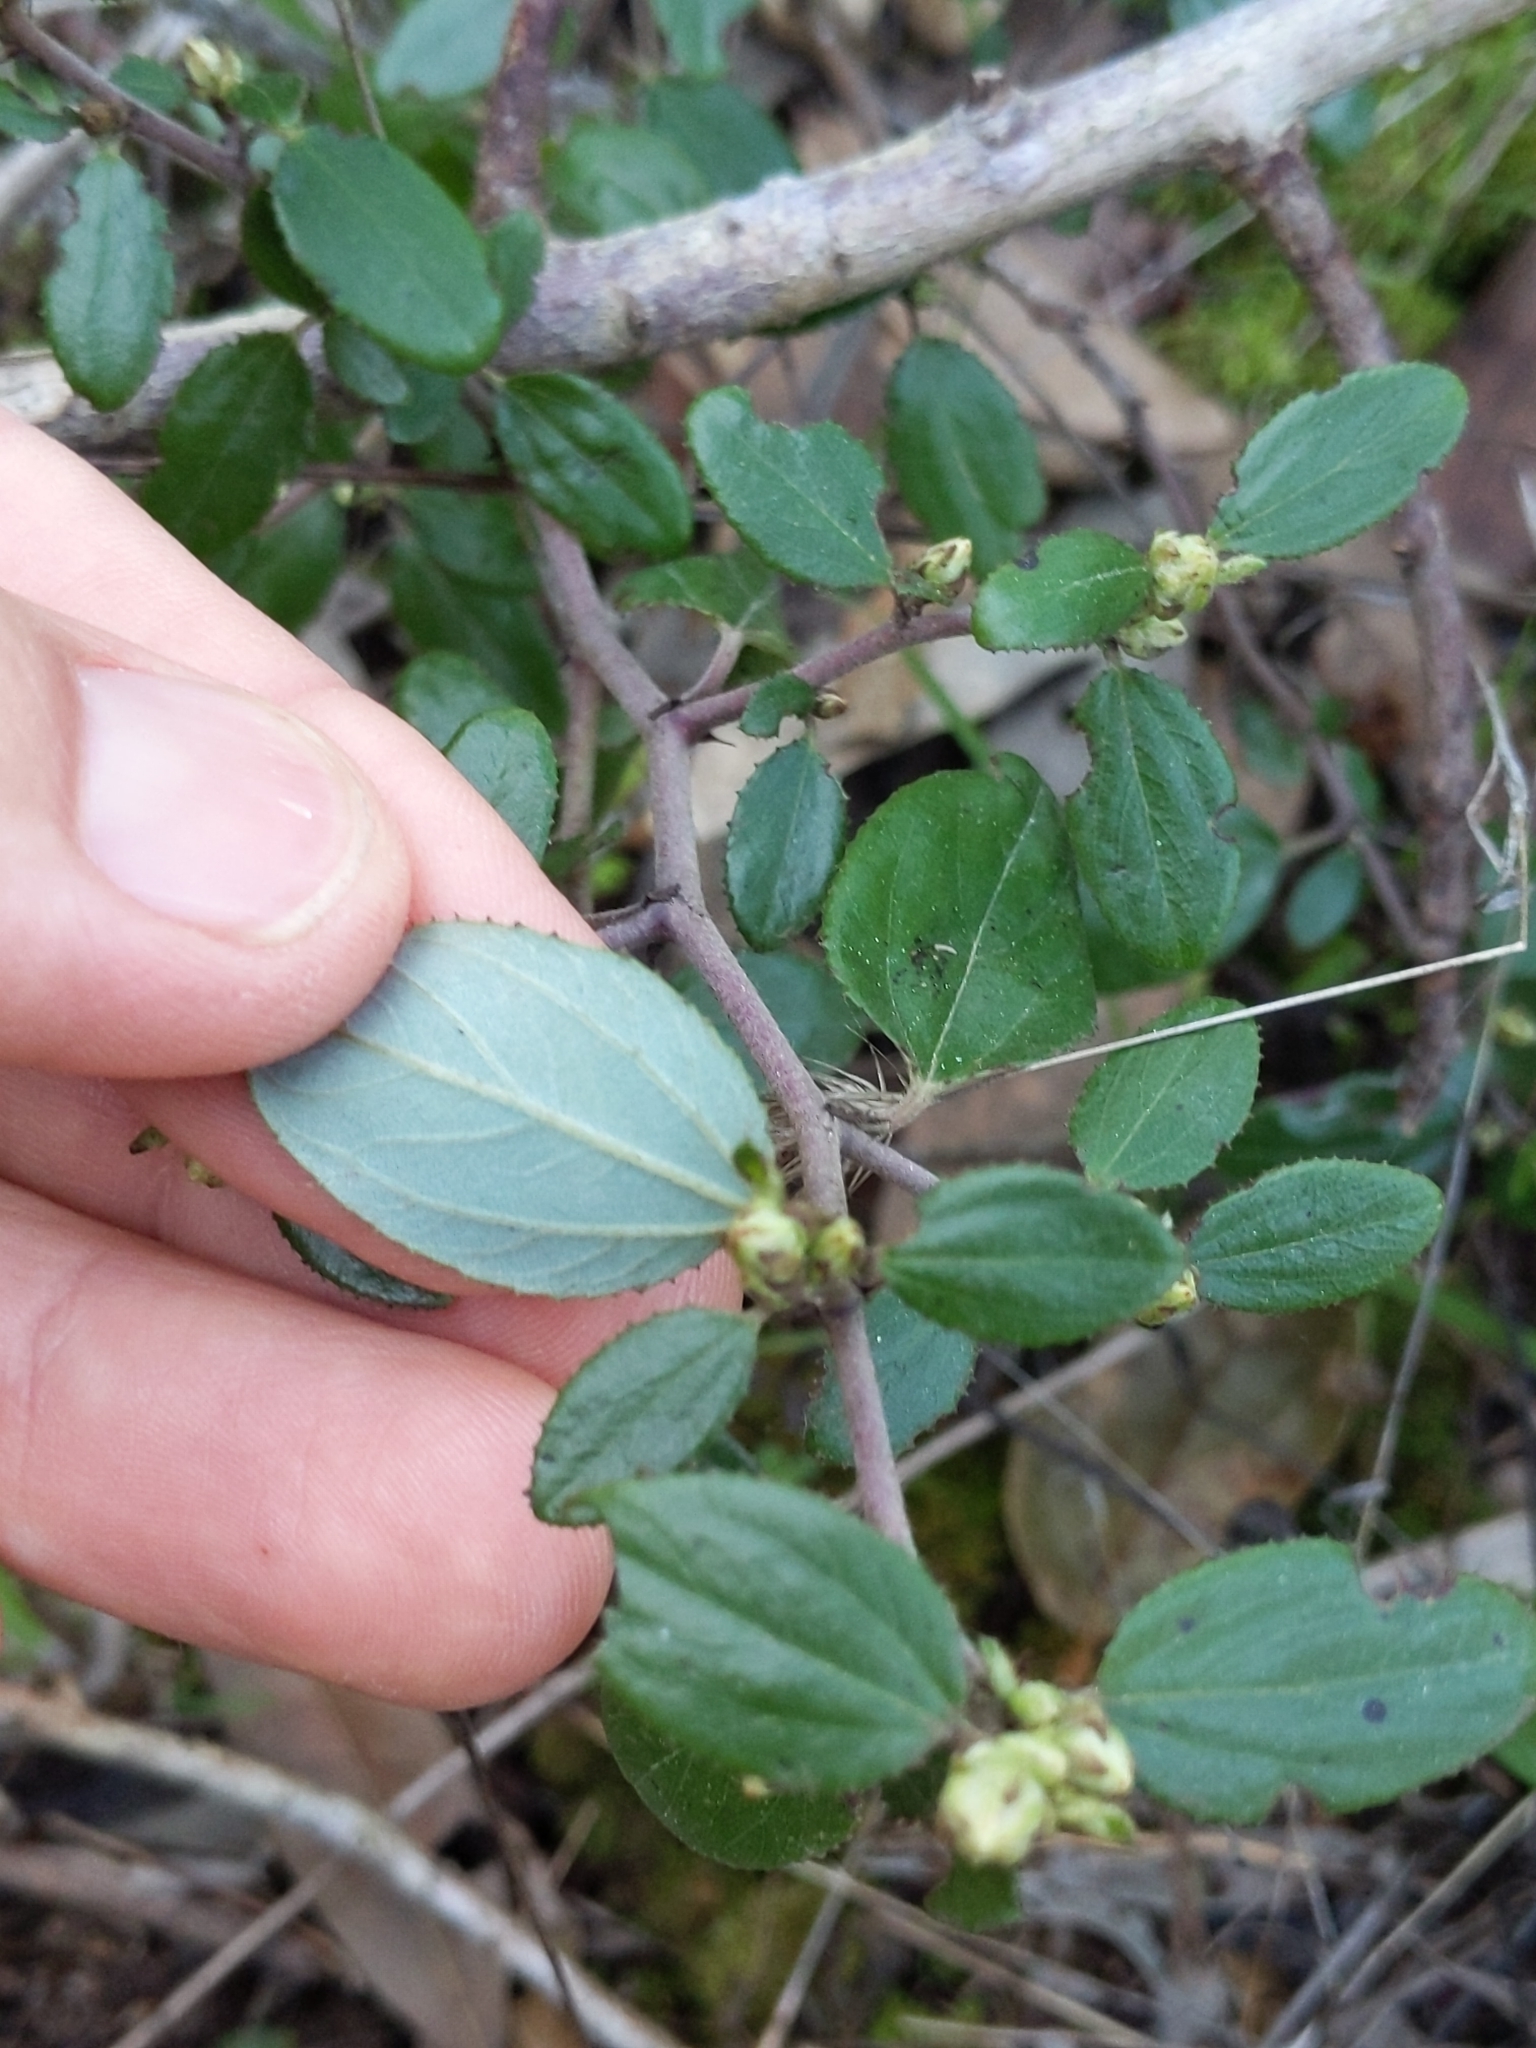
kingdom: Plantae
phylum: Tracheophyta
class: Magnoliopsida
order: Rosales
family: Rhamnaceae
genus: Ceanothus
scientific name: Ceanothus oliganthus
